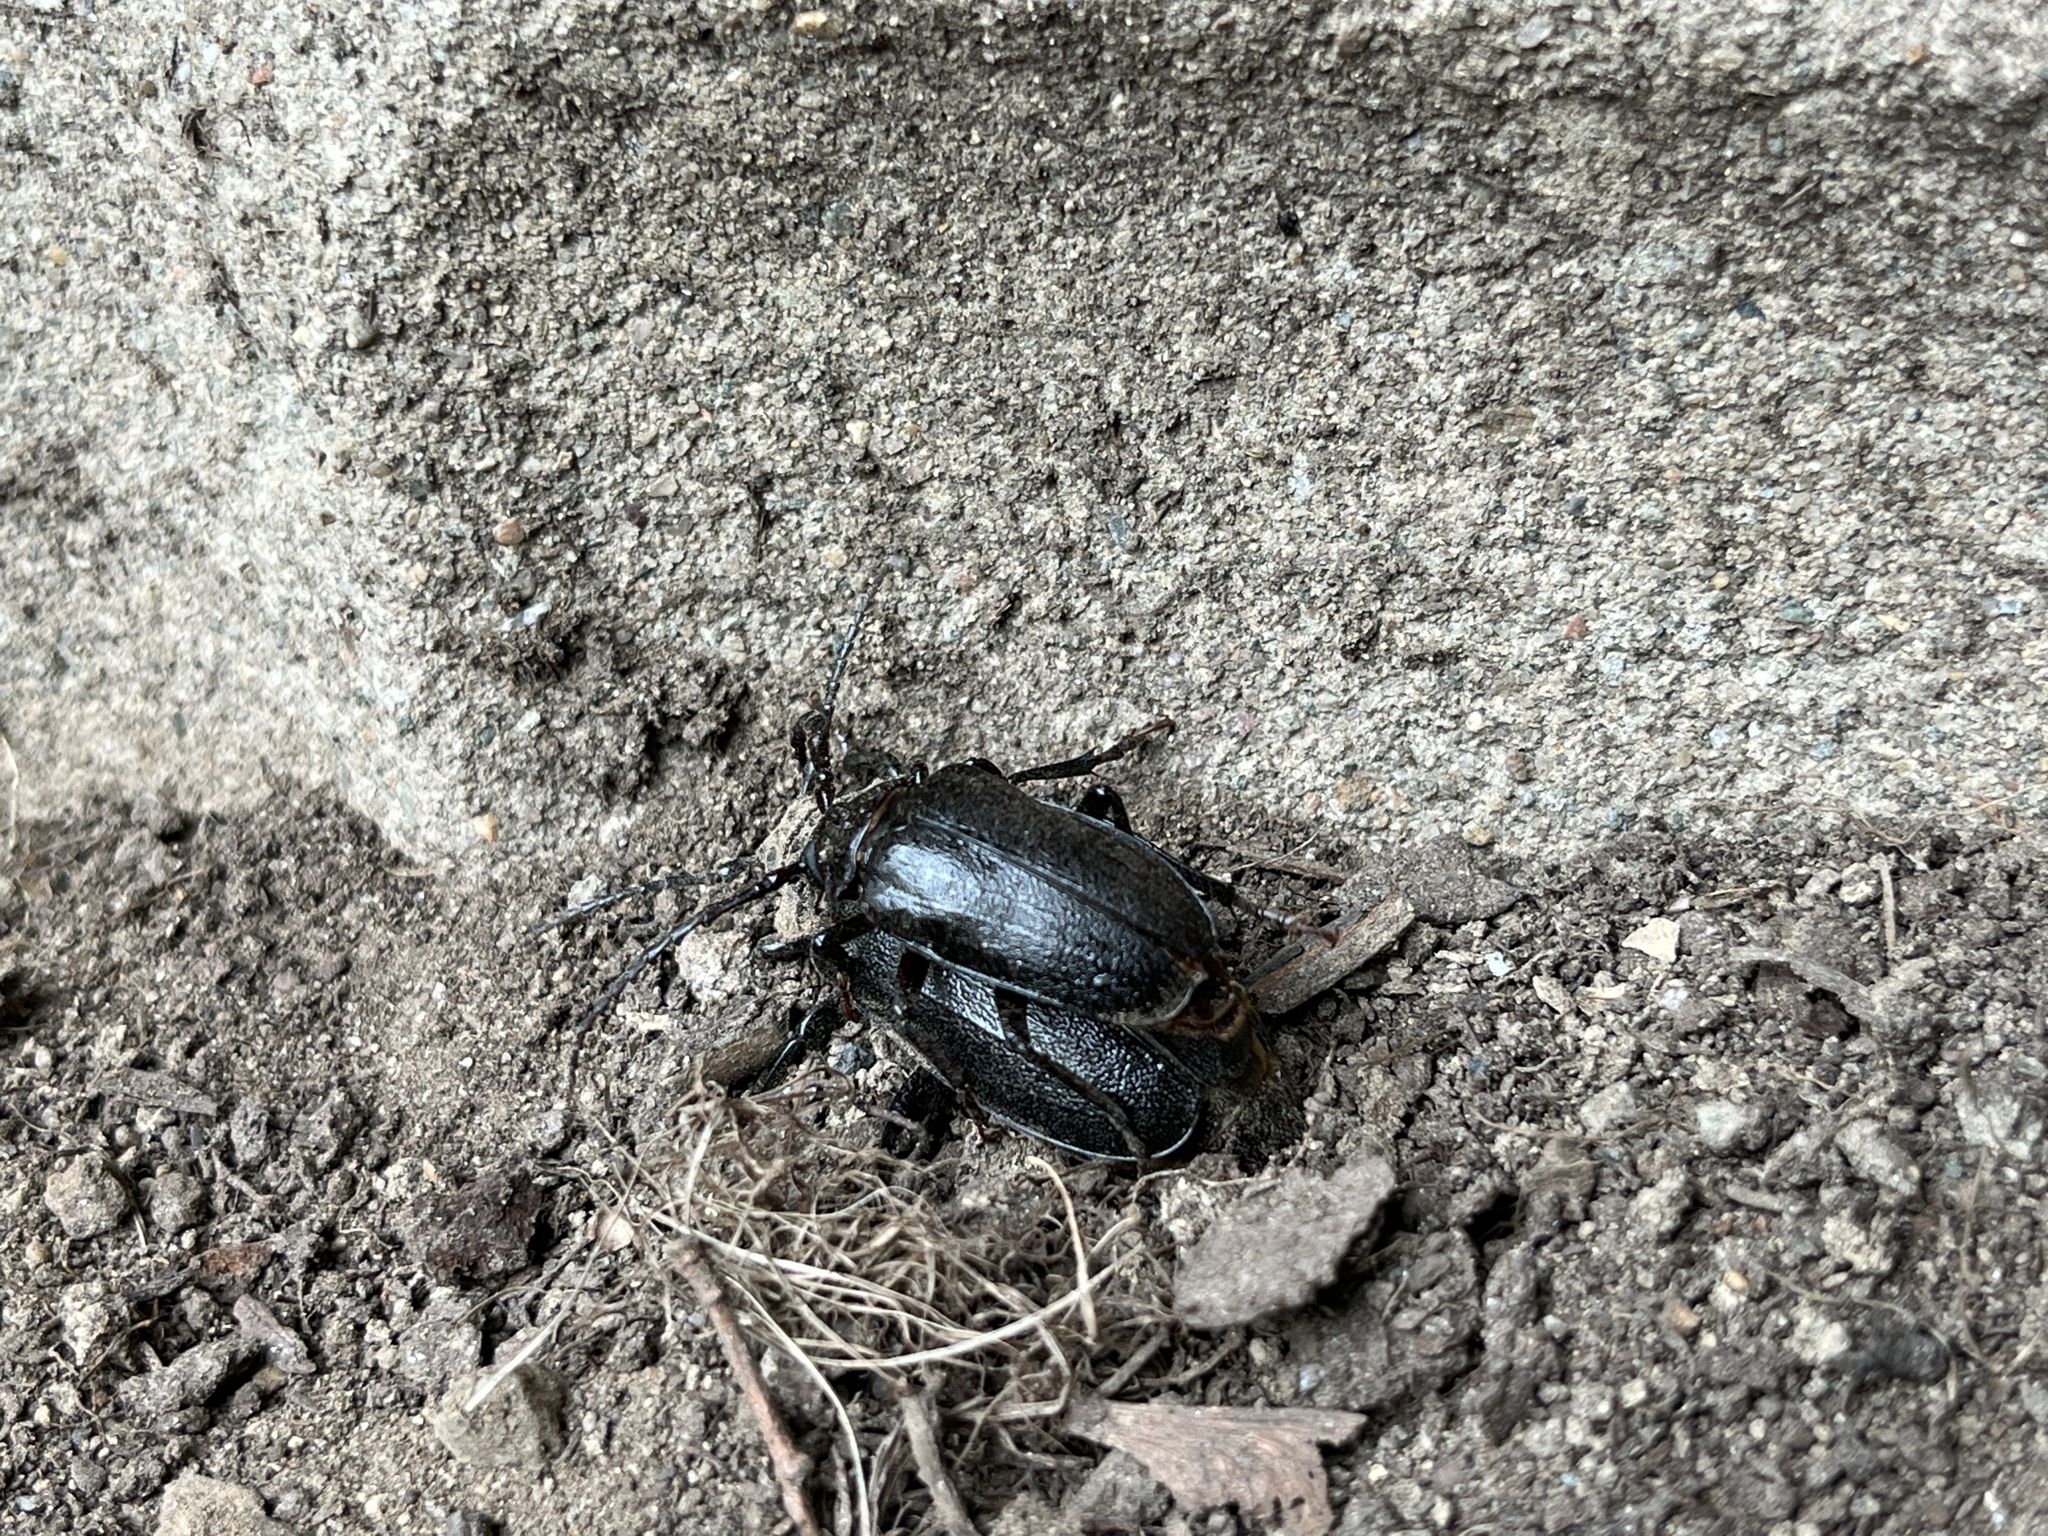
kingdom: Animalia
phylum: Arthropoda
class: Insecta
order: Coleoptera
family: Cerambycidae
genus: Prionus
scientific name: Prionus laticollis
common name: Broad necked prionus
